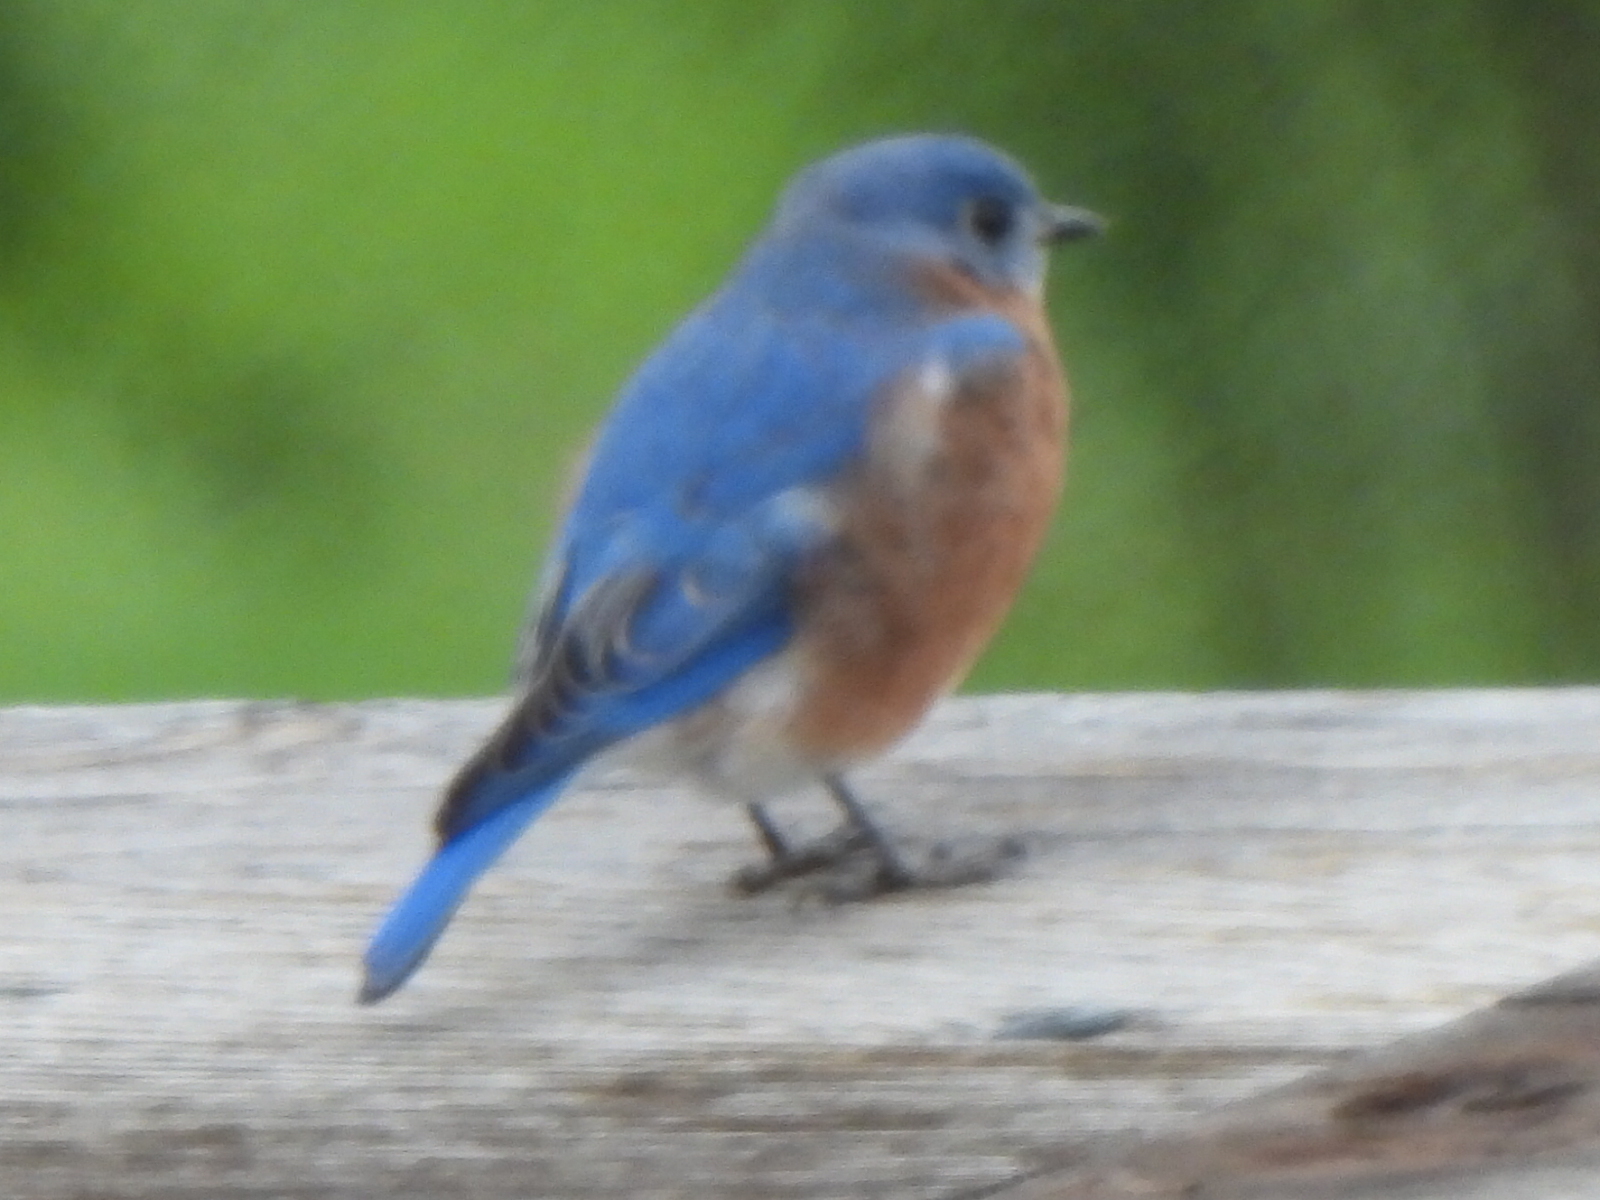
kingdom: Animalia
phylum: Chordata
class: Aves
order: Passeriformes
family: Turdidae
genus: Sialia
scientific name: Sialia sialis
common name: Eastern bluebird
